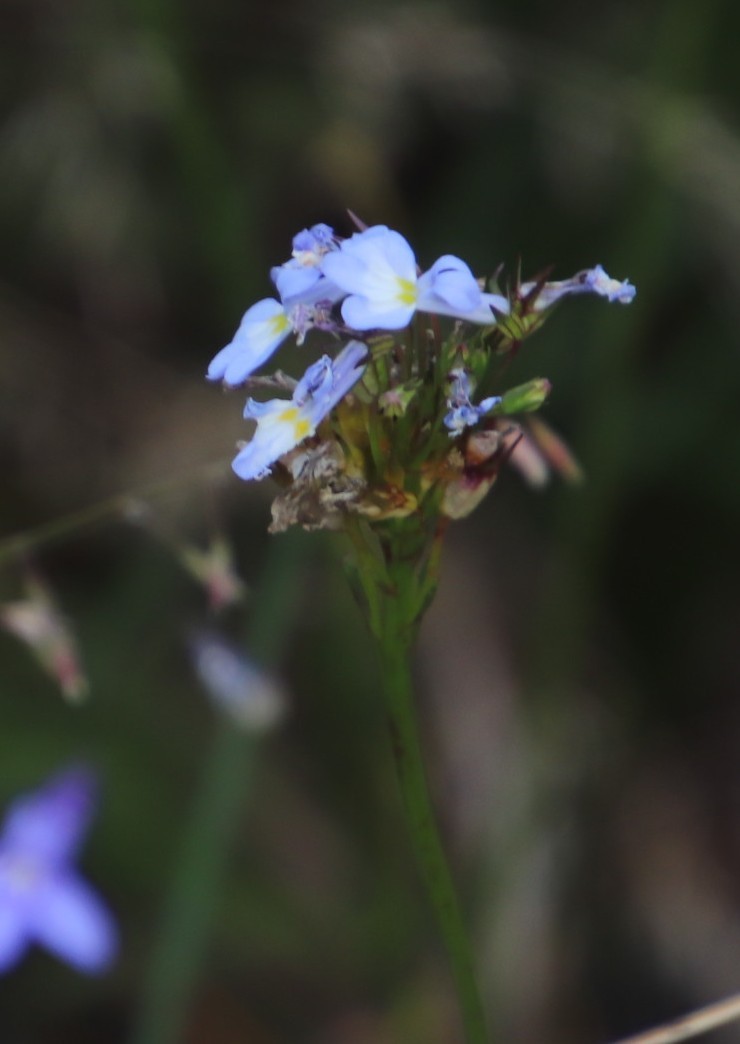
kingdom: Plantae
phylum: Tracheophyta
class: Magnoliopsida
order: Asterales
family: Campanulaceae
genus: Lobelia
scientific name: Lobelia comosa
